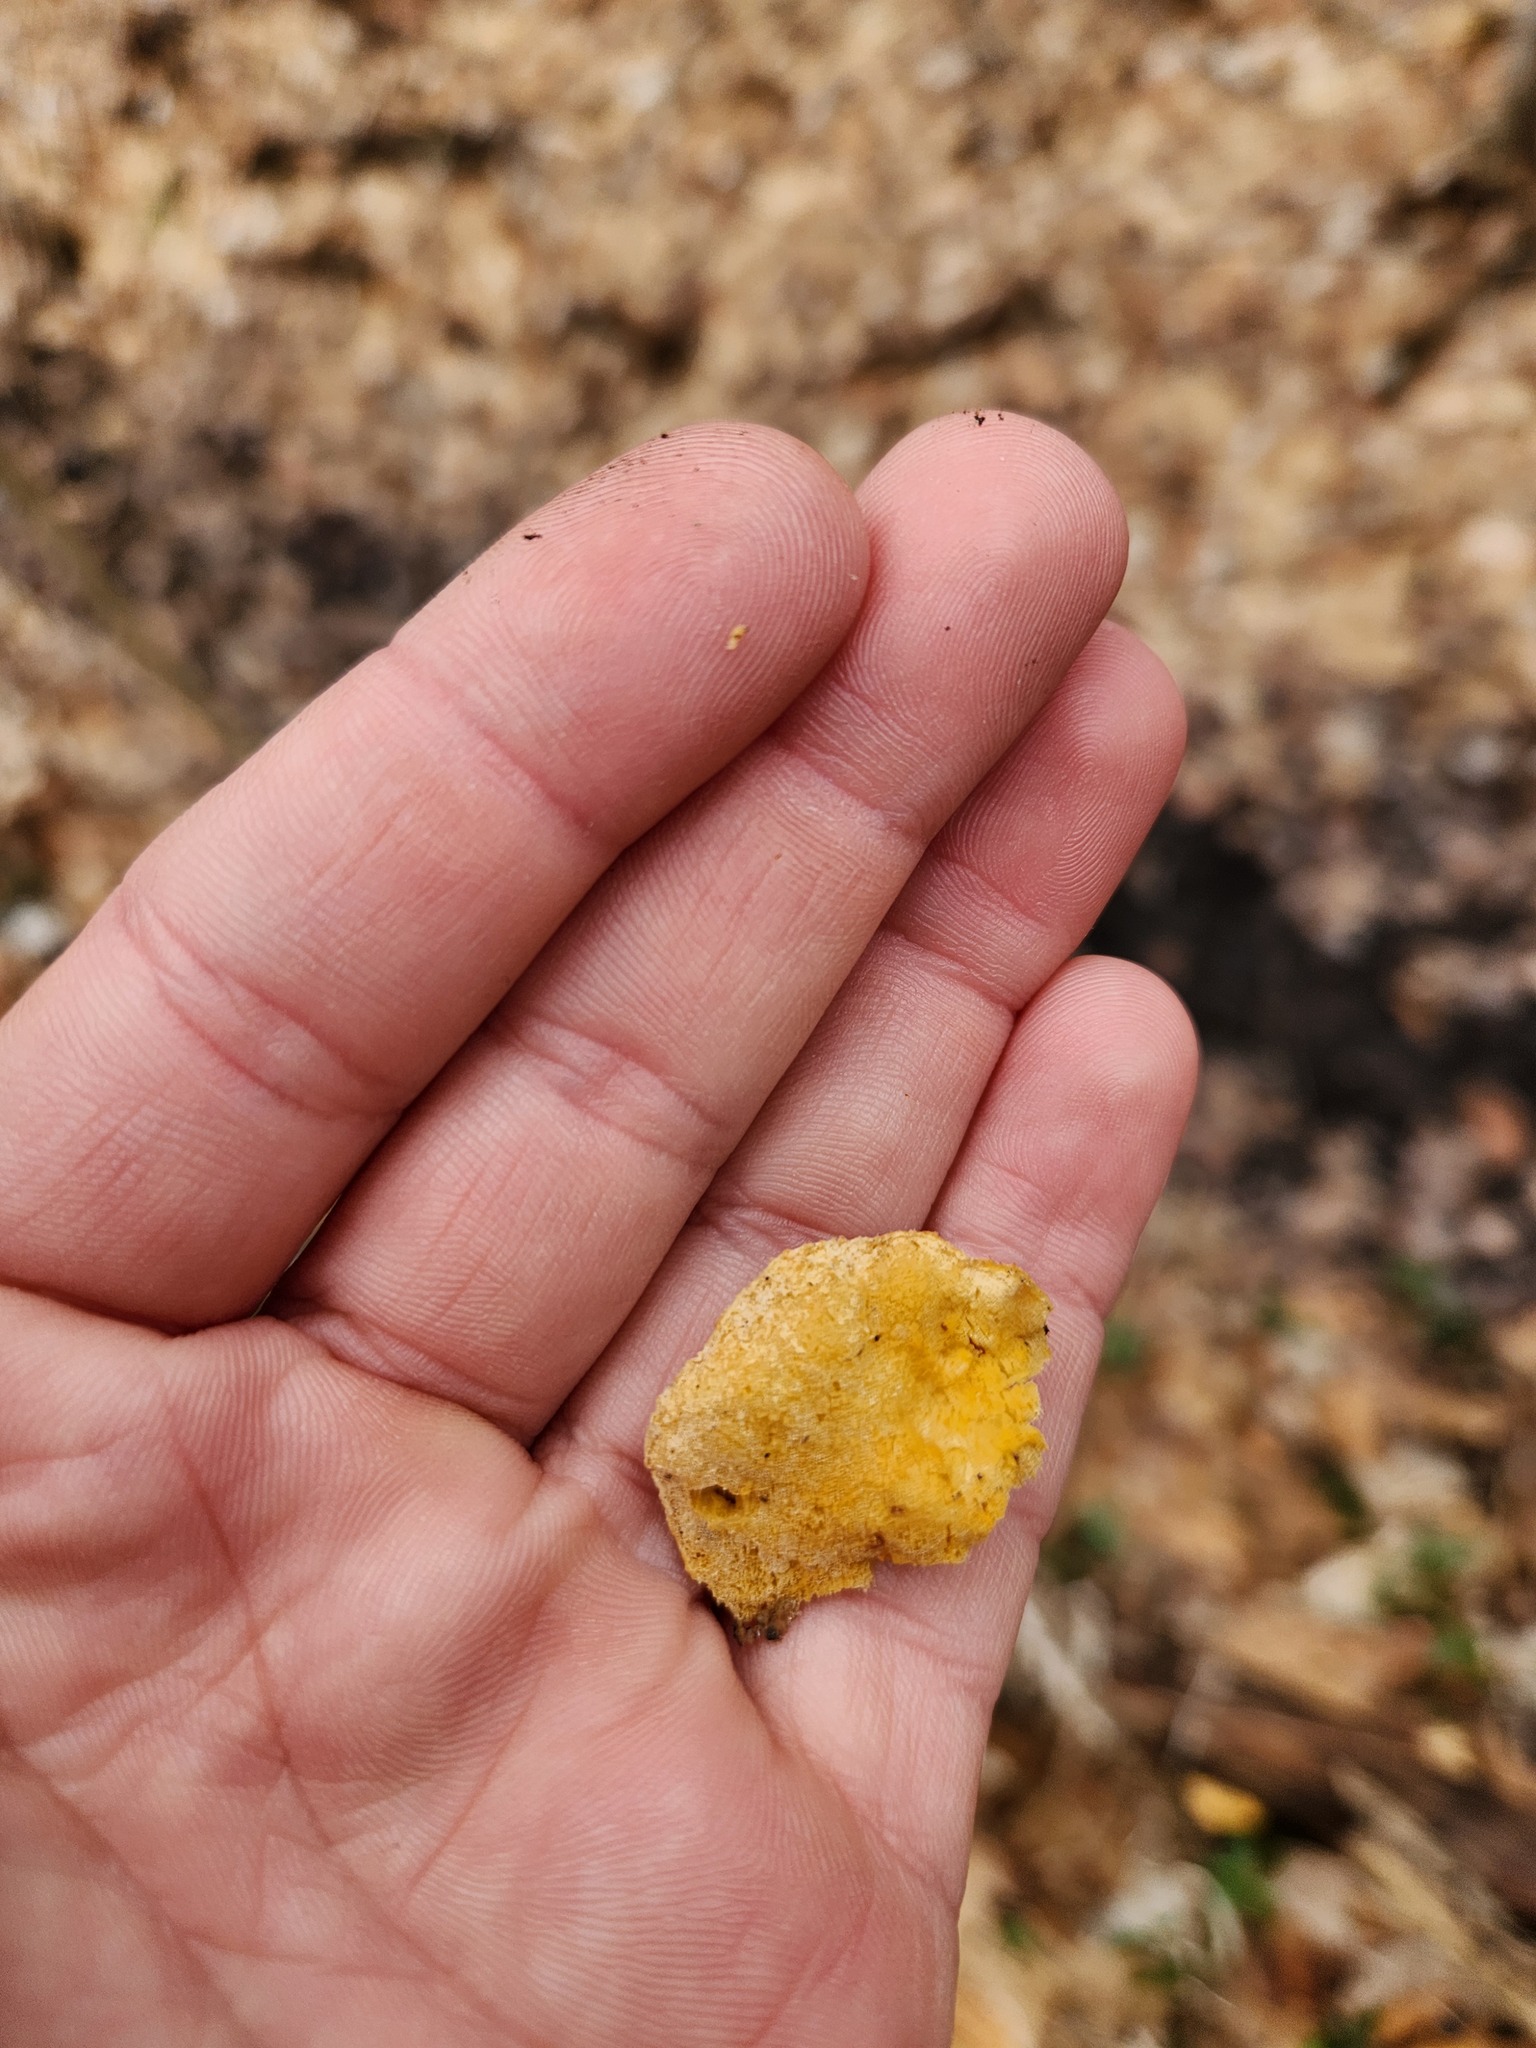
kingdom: Fungi
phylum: Ascomycota
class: Sordariomycetes
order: Hypocreales
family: Hypocreaceae
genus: Protocrea
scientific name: Protocrea pallida
